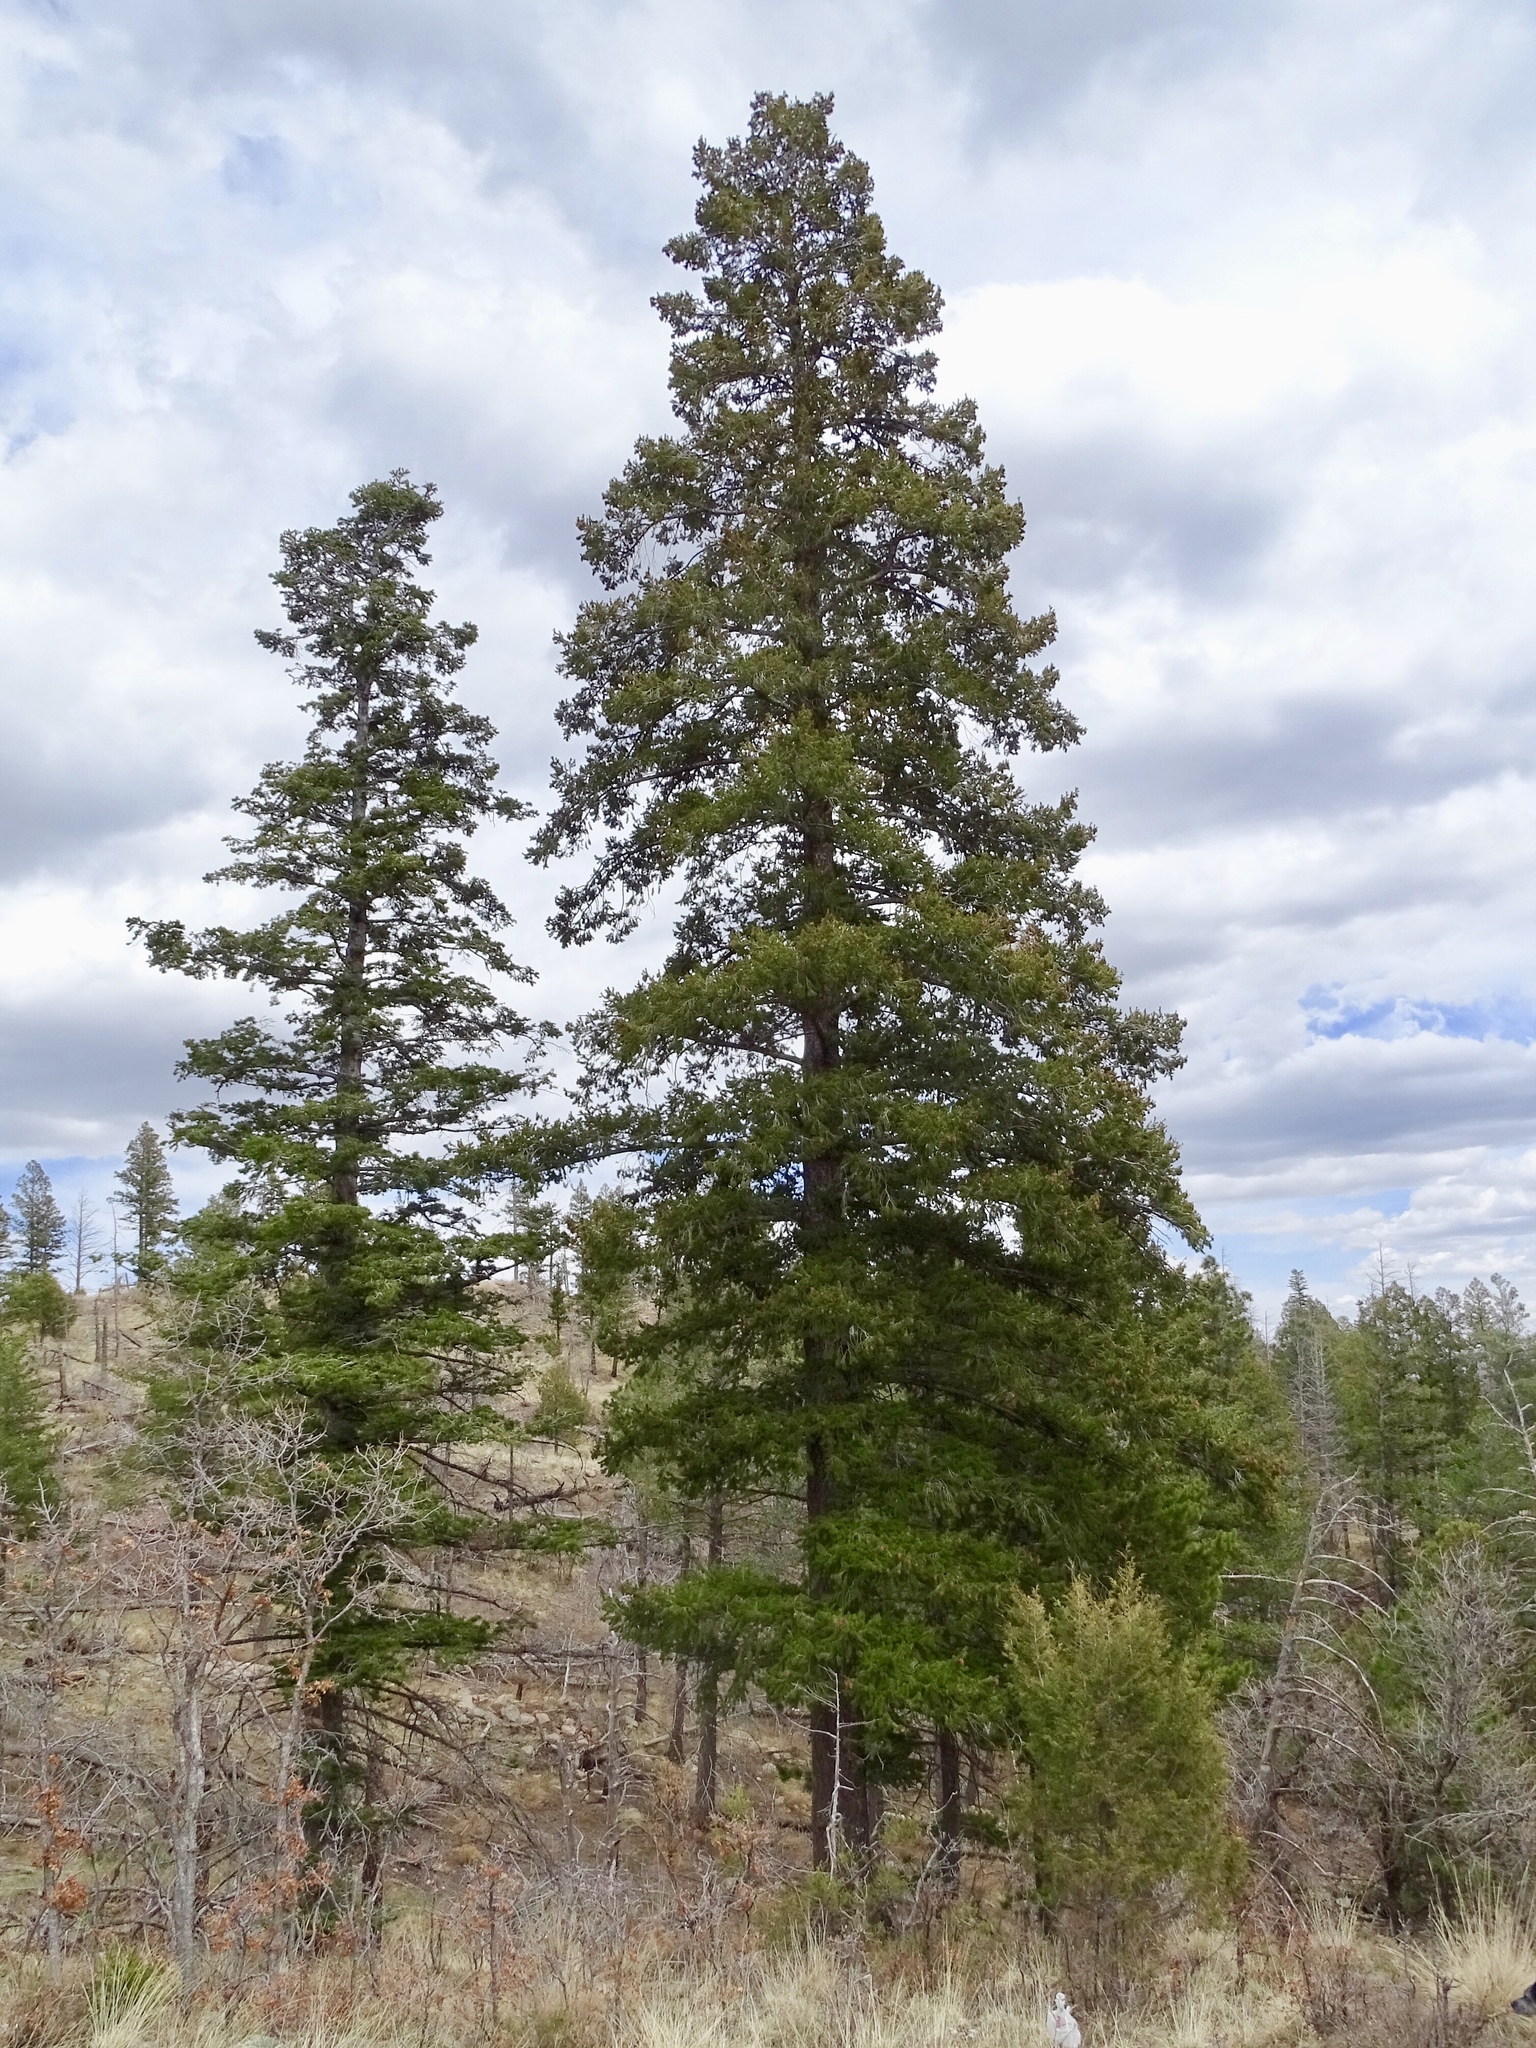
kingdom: Plantae
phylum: Tracheophyta
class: Pinopsida
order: Pinales
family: Pinaceae
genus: Pseudotsuga
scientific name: Pseudotsuga menziesii
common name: Douglas fir
